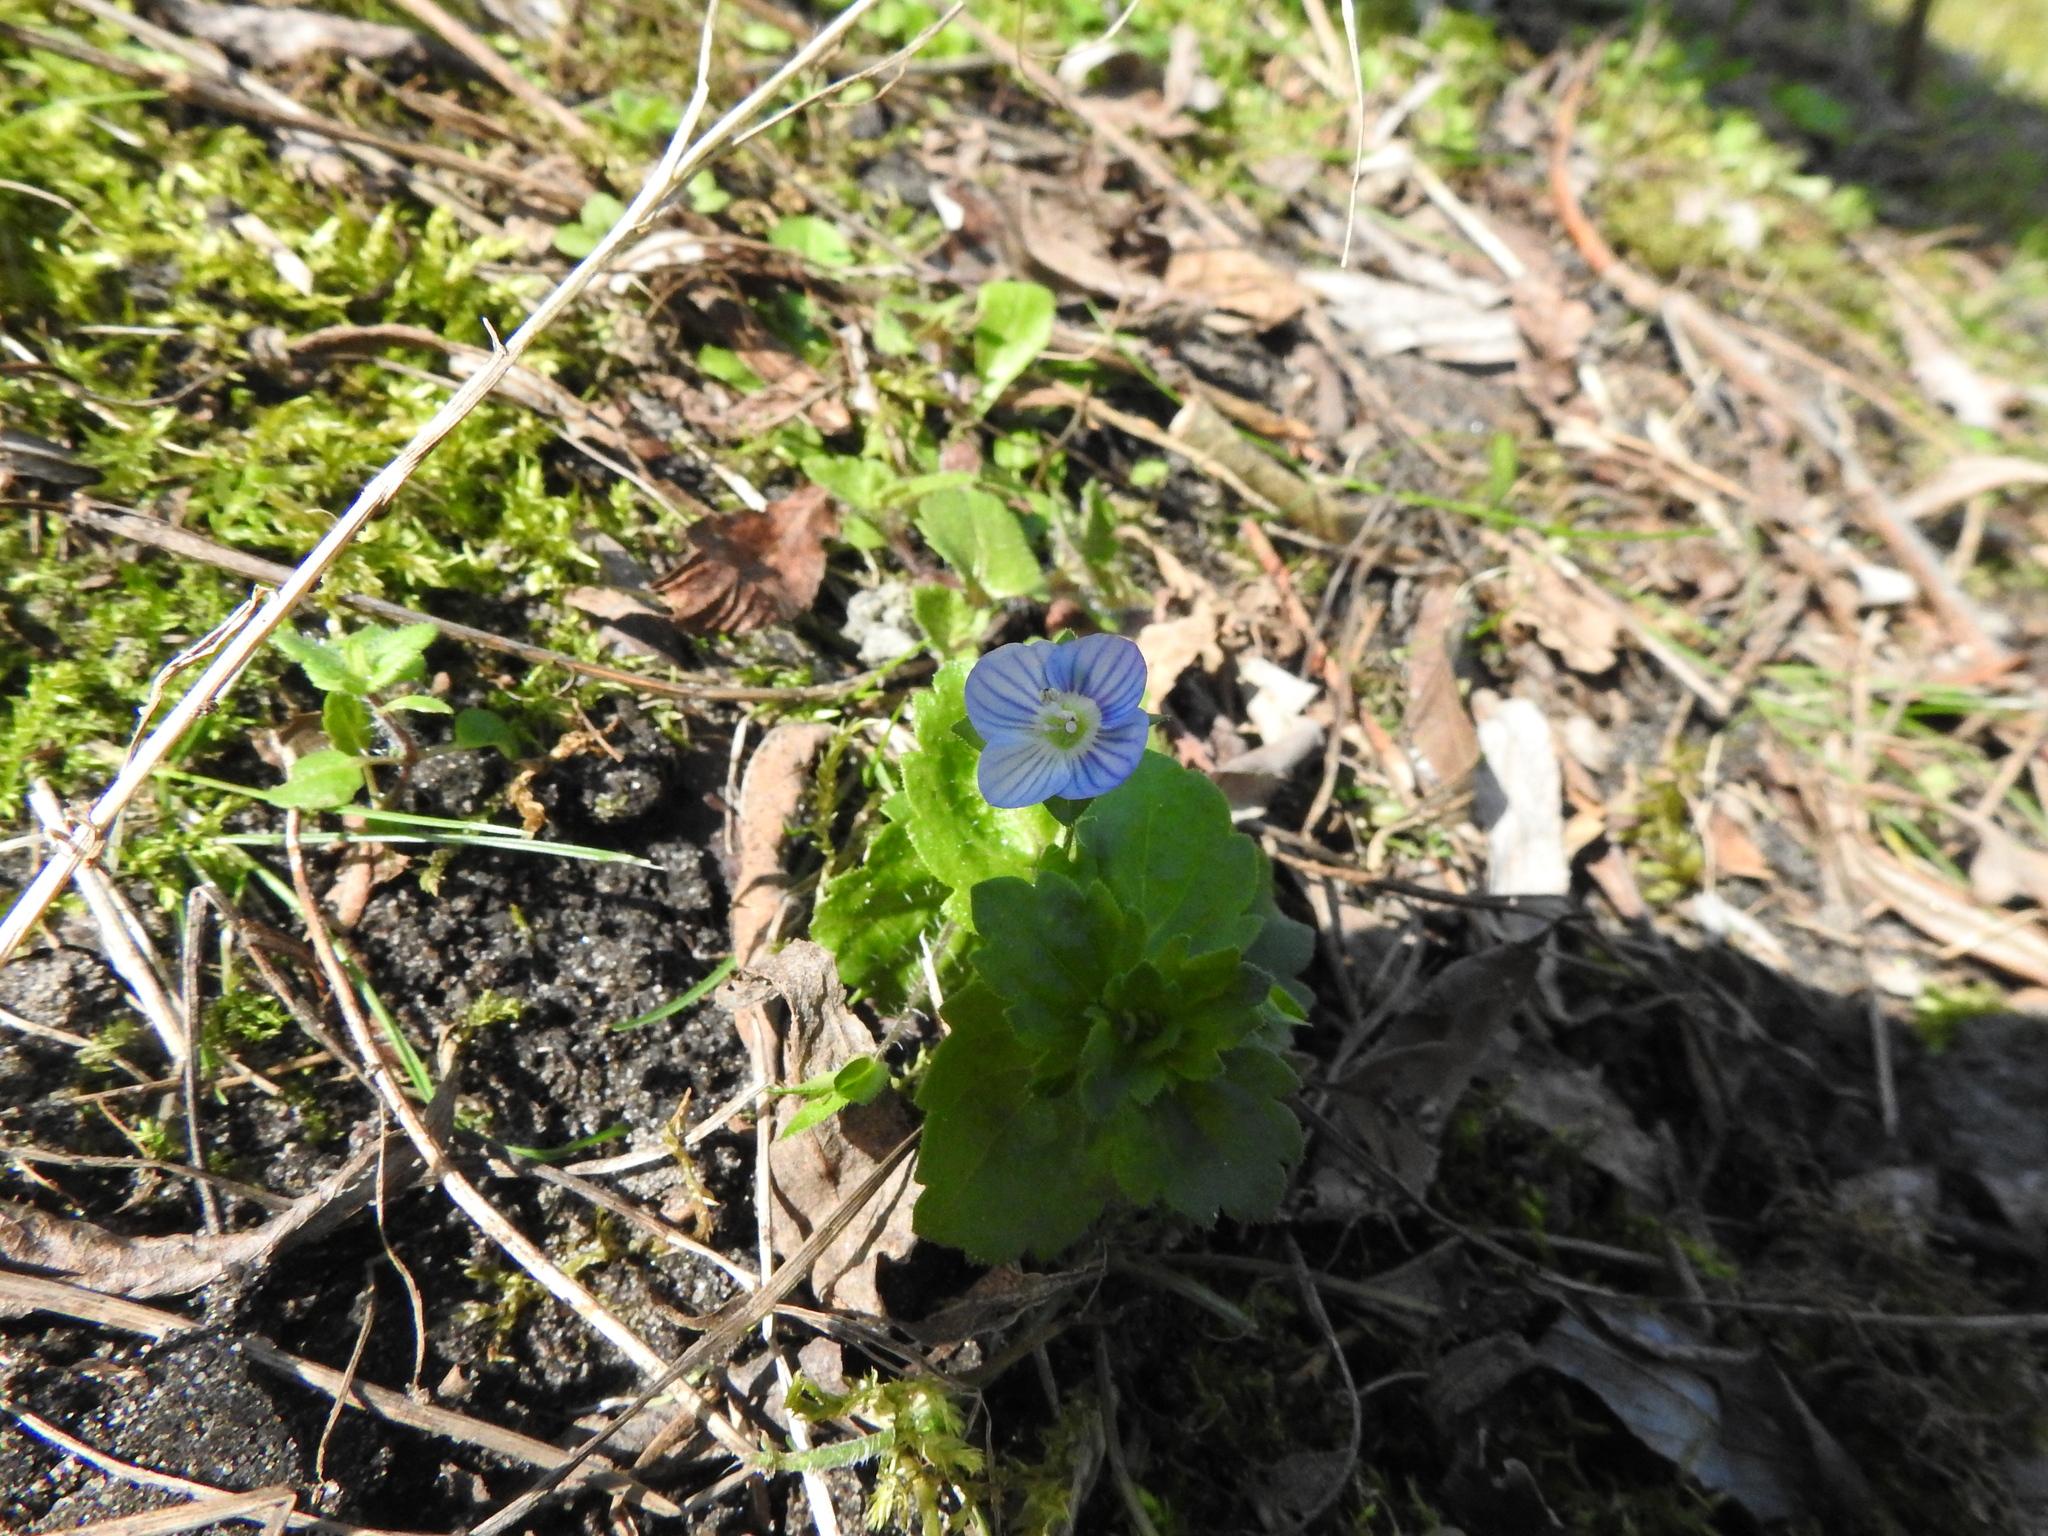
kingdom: Plantae
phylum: Tracheophyta
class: Magnoliopsida
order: Lamiales
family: Plantaginaceae
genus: Veronica
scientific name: Veronica persica
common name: Common field-speedwell
